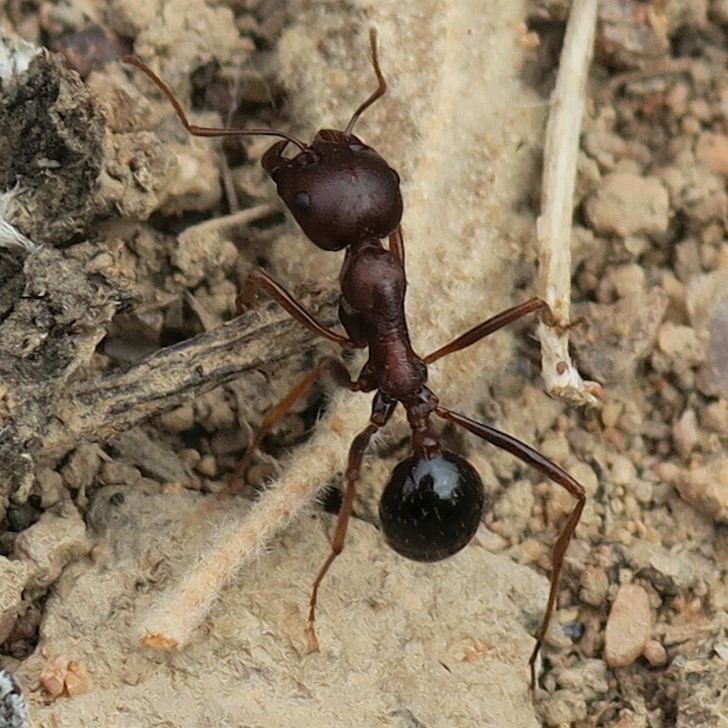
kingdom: Animalia
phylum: Arthropoda
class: Insecta
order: Hymenoptera
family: Formicidae
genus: Messor
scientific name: Messor striatifrons
